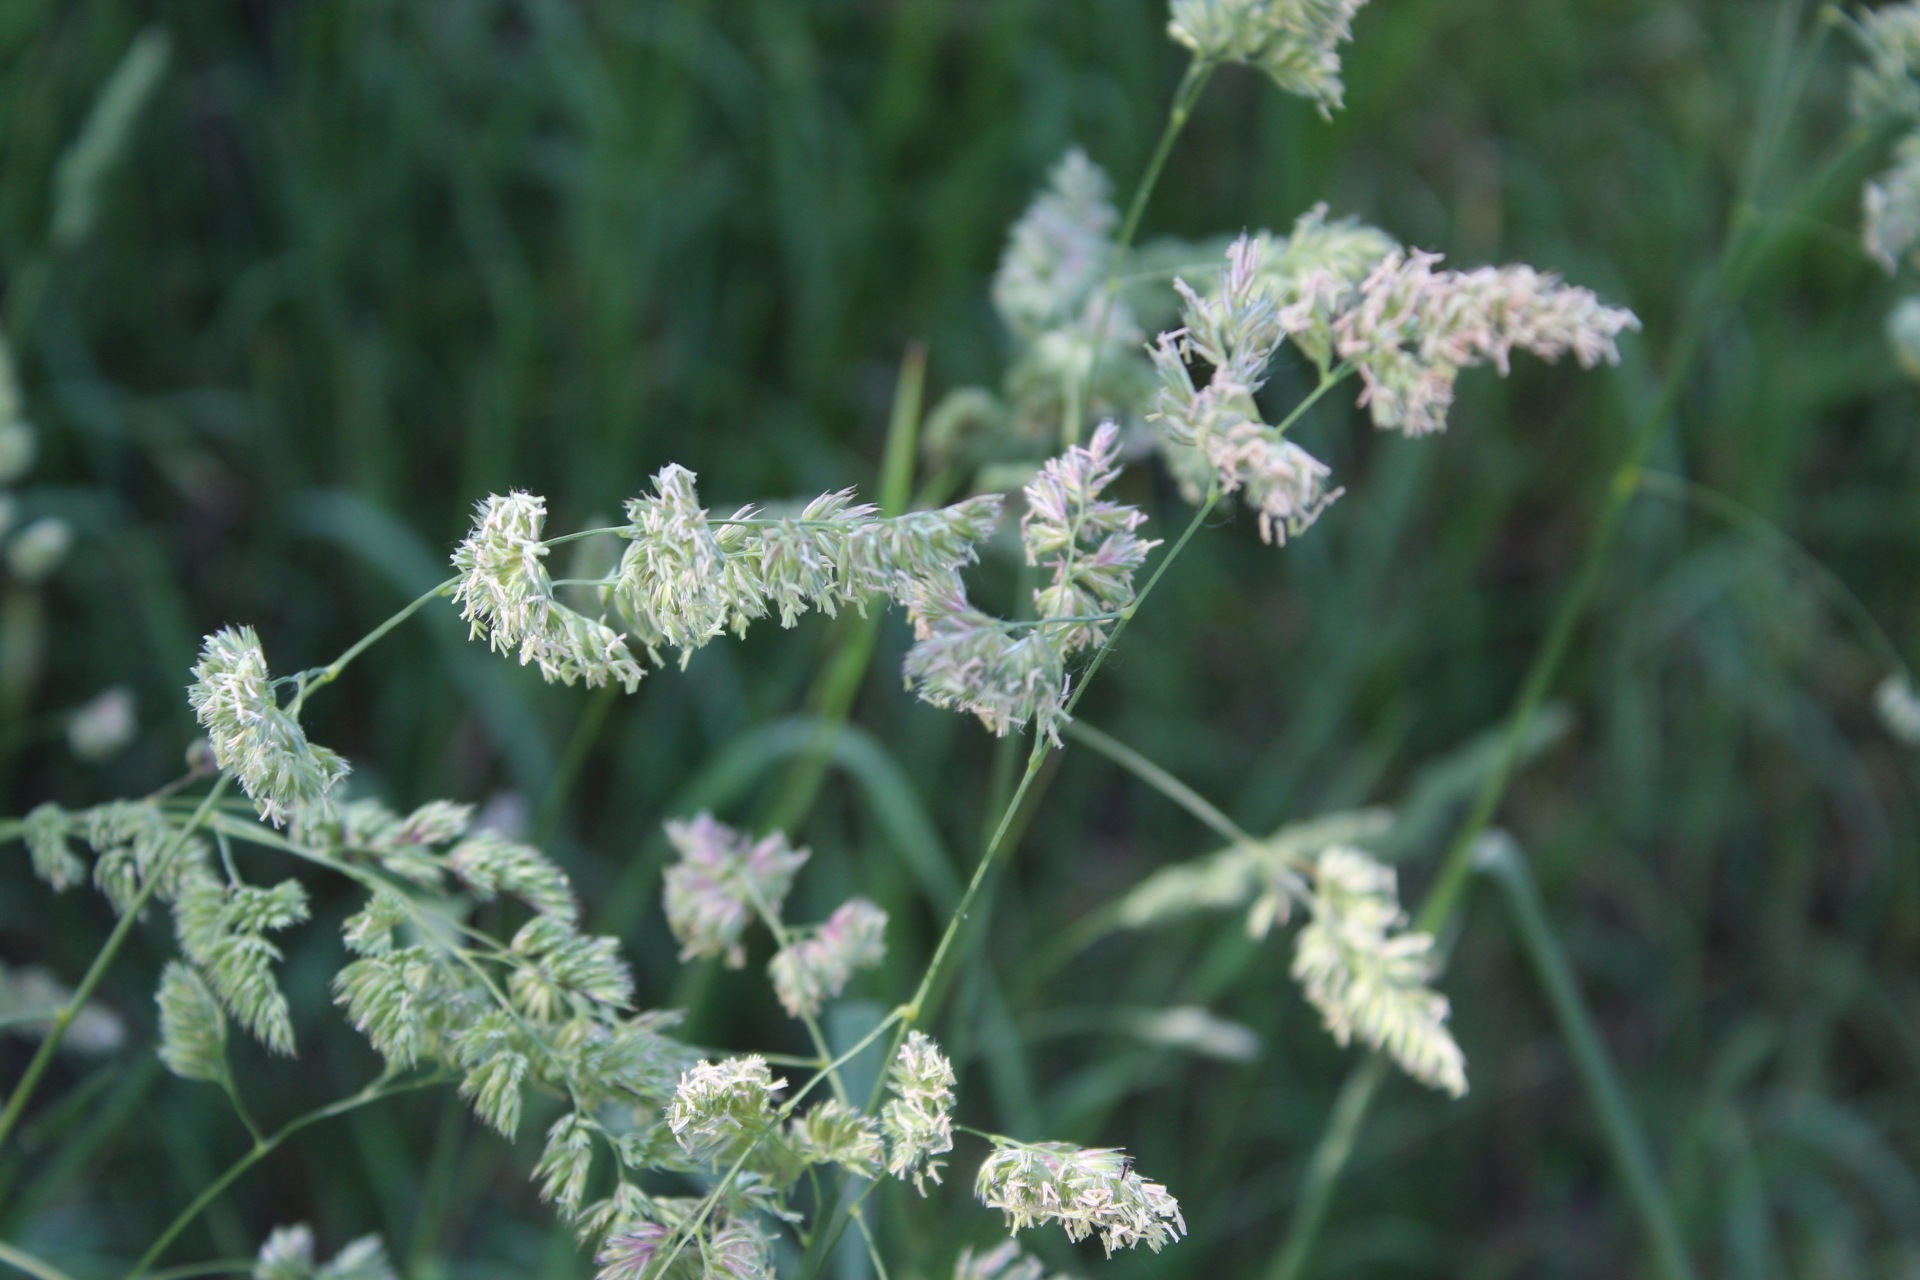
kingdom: Plantae
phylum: Tracheophyta
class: Liliopsida
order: Poales
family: Poaceae
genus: Dactylis
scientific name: Dactylis glomerata
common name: Orchardgrass
